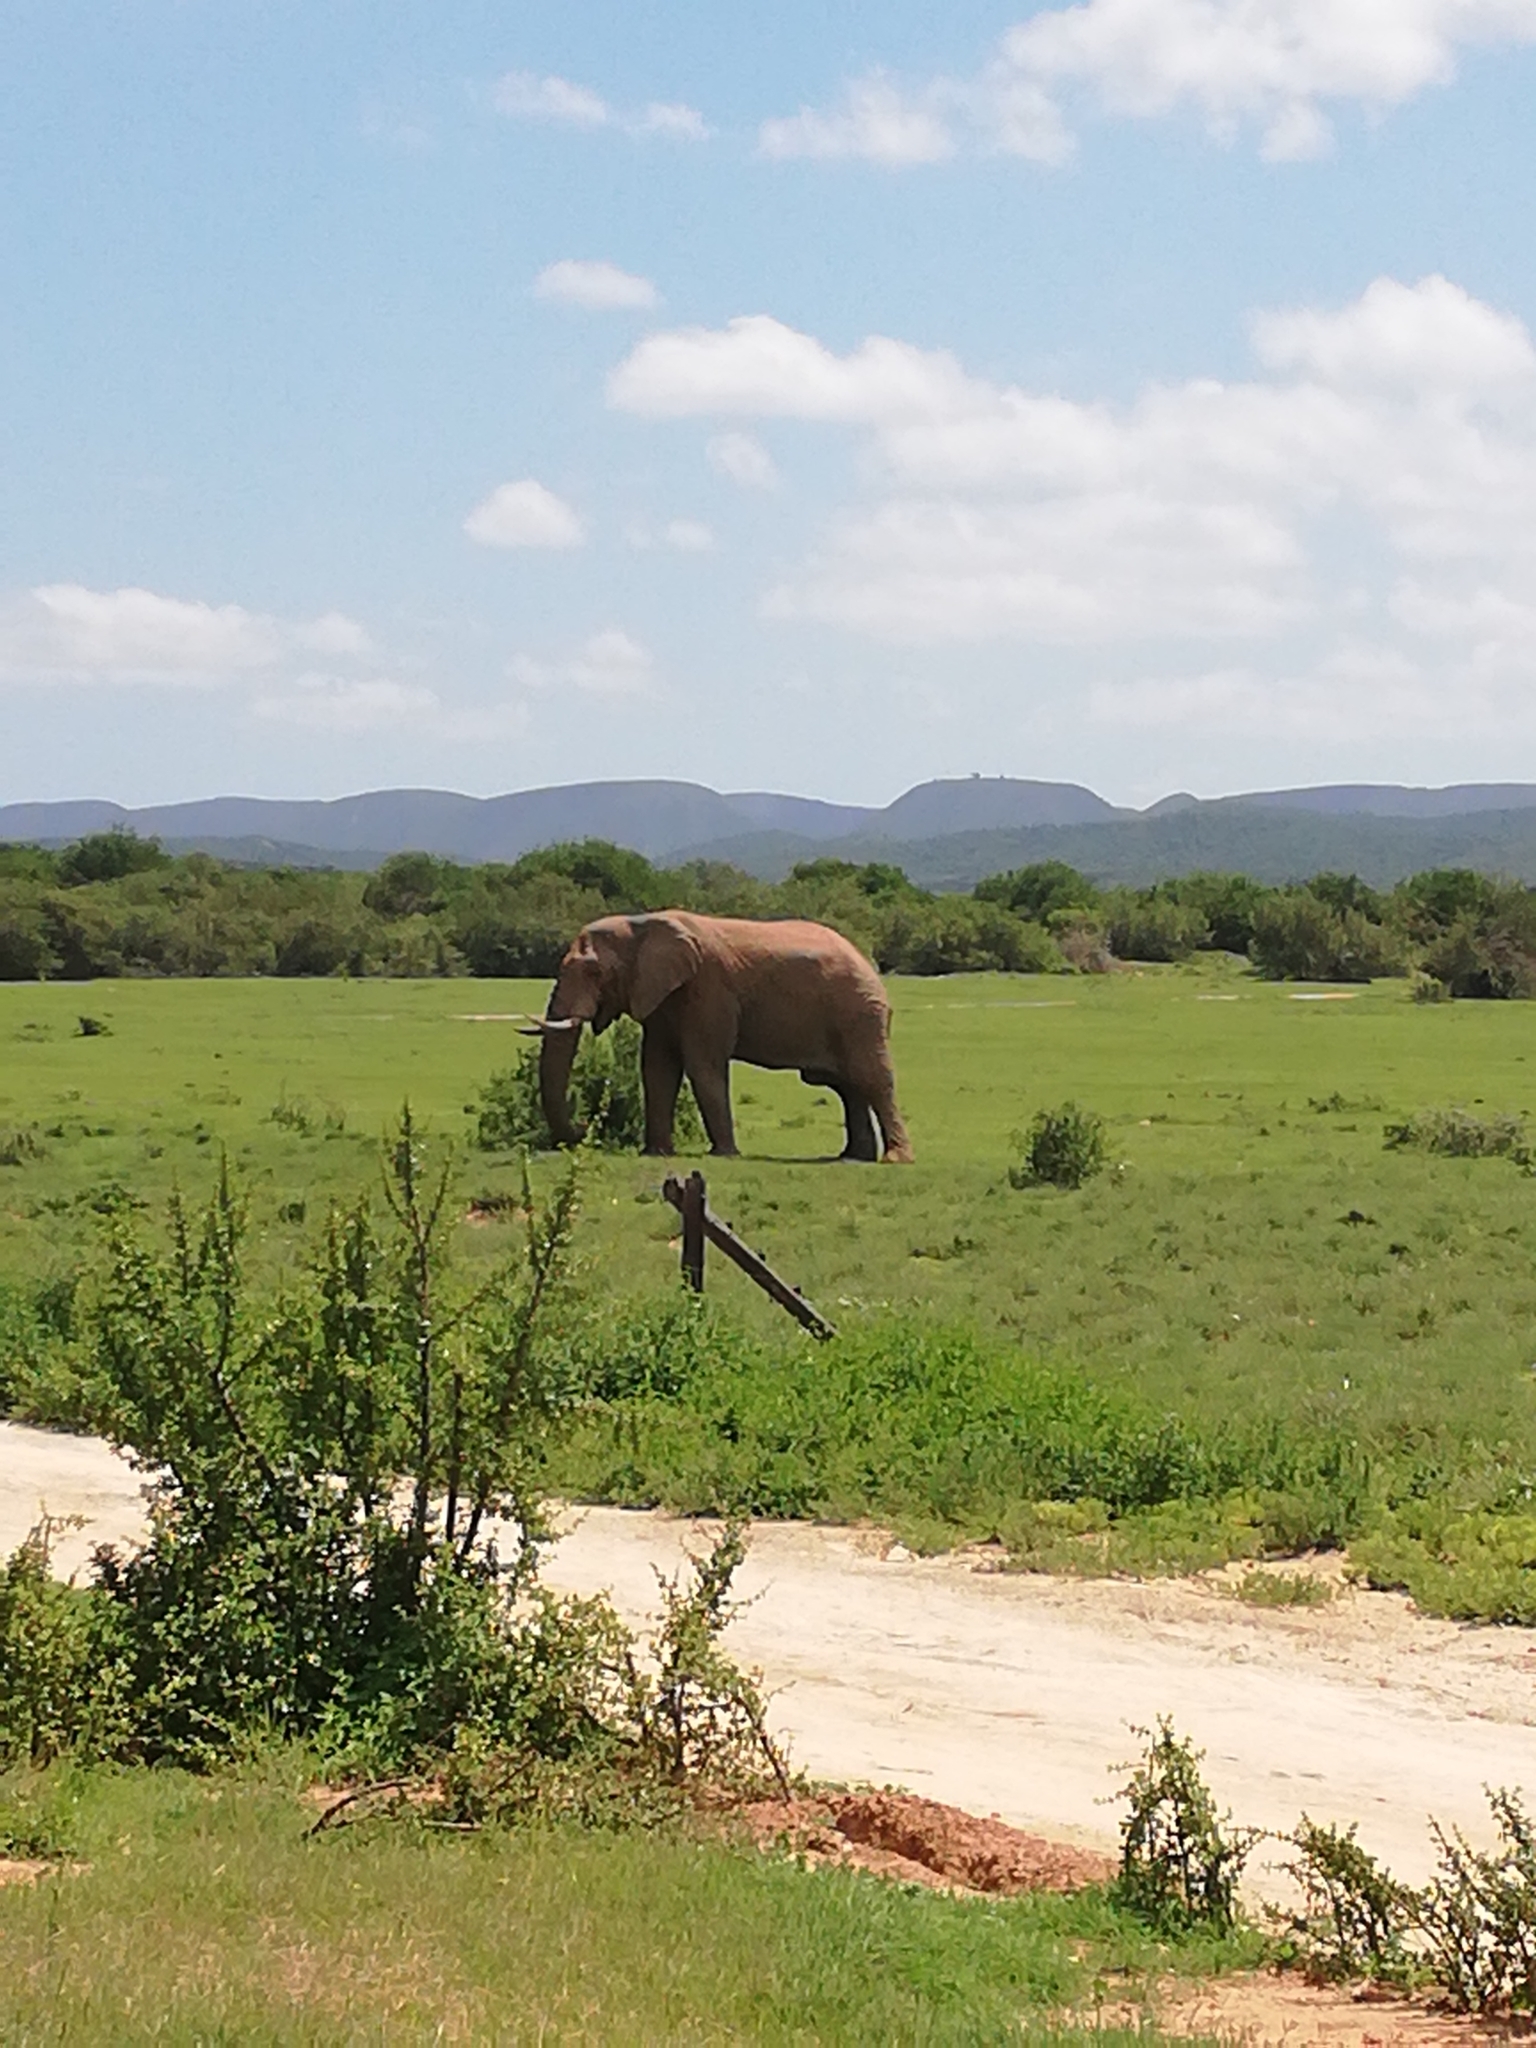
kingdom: Animalia
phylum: Chordata
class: Mammalia
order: Proboscidea
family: Elephantidae
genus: Loxodonta
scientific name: Loxodonta africana
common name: African elephant
